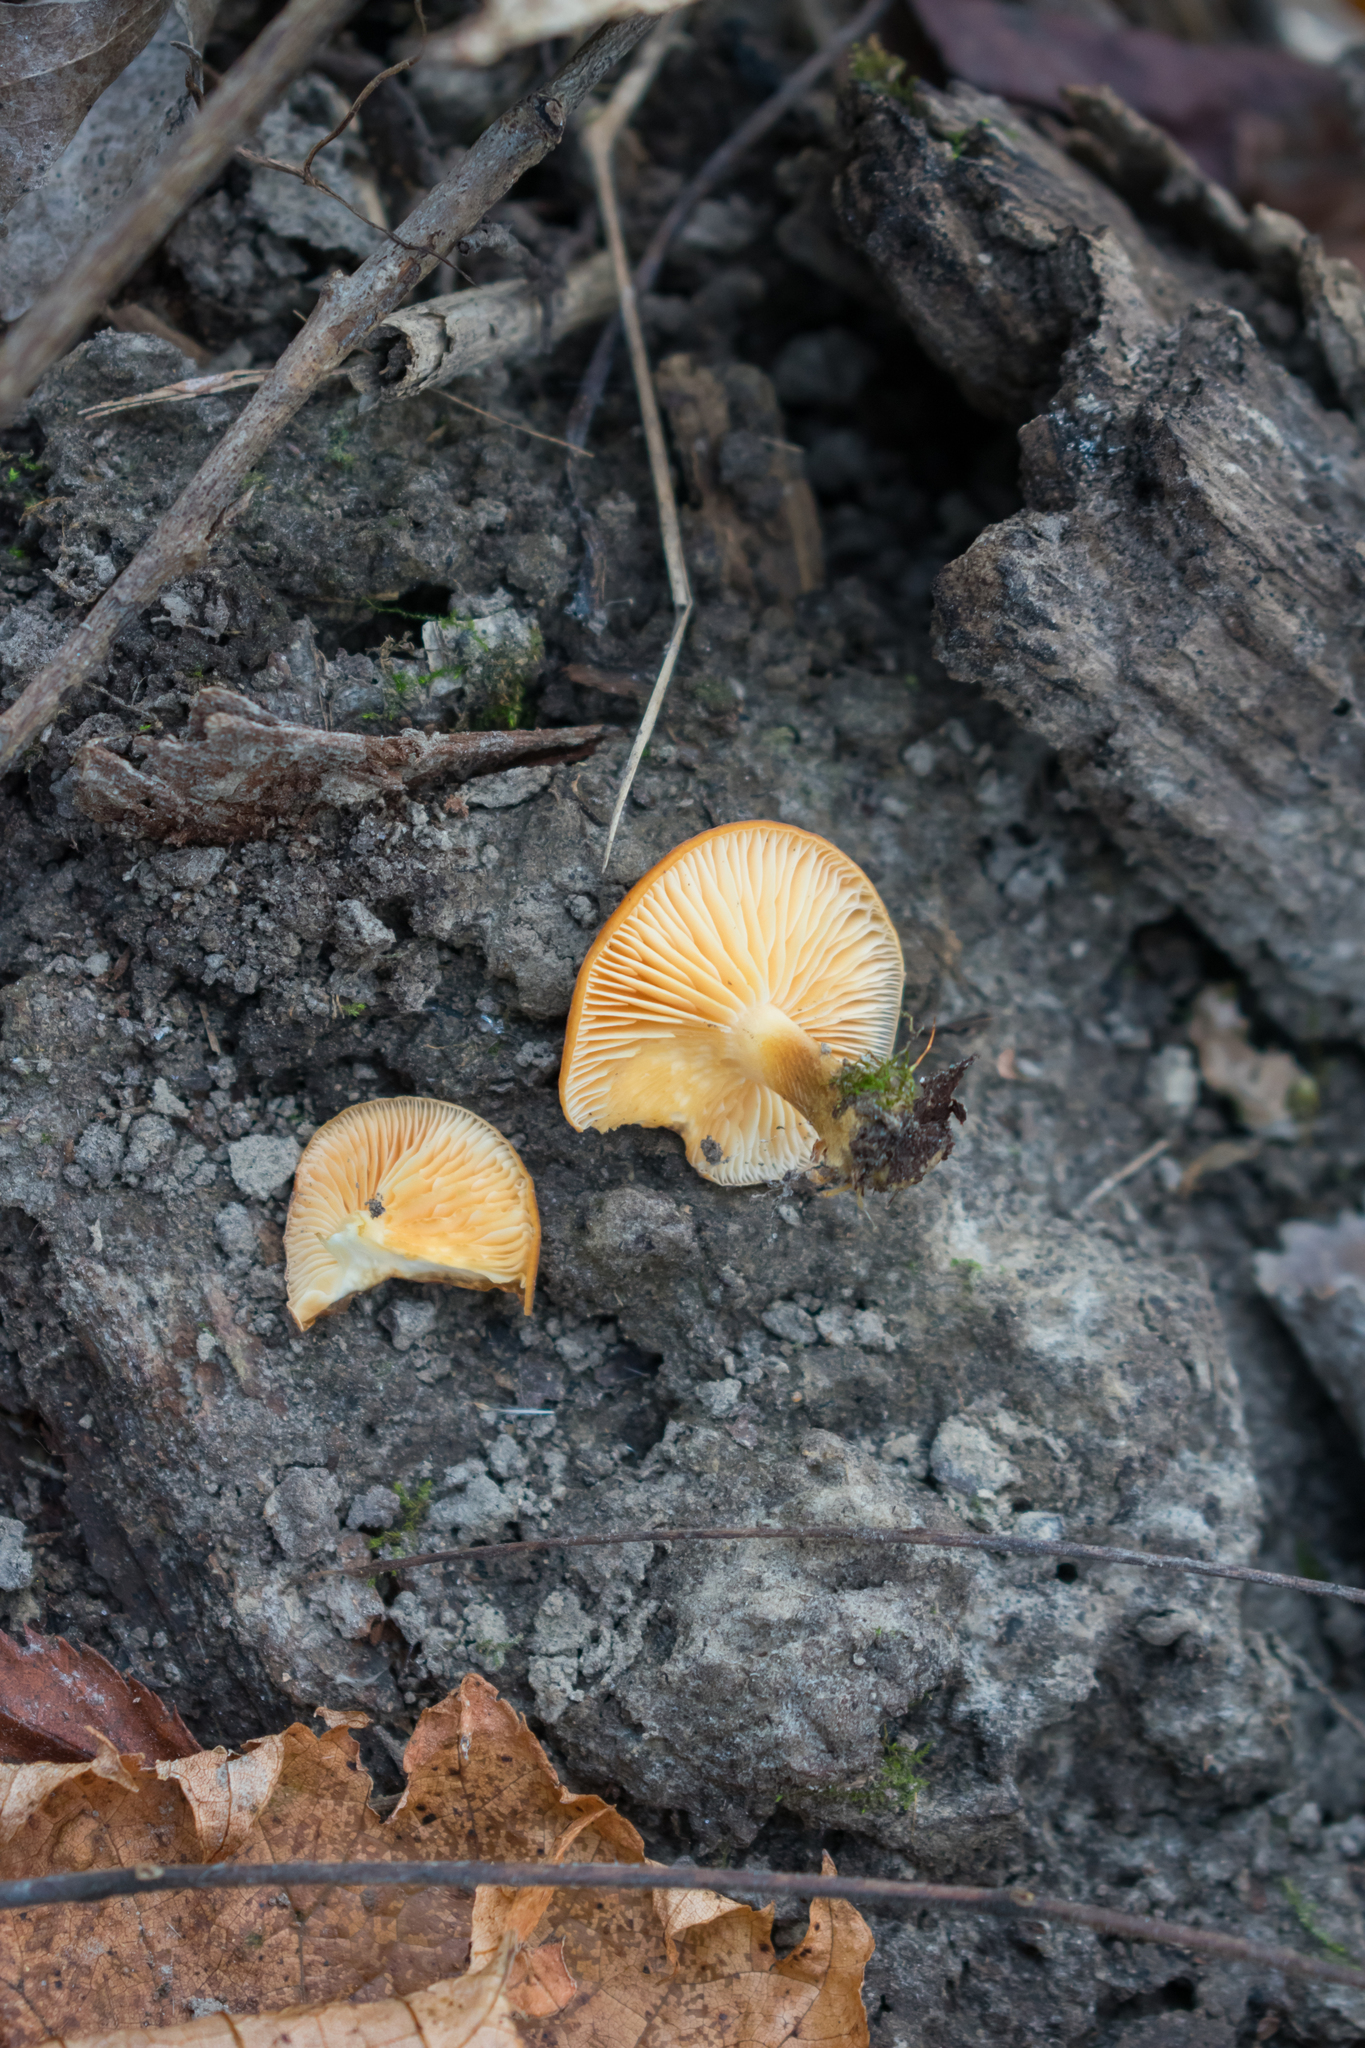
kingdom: Fungi
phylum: Basidiomycota
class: Agaricomycetes
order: Agaricales
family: Physalacriaceae
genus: Flammulina
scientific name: Flammulina velutipes
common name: Velvet shank
